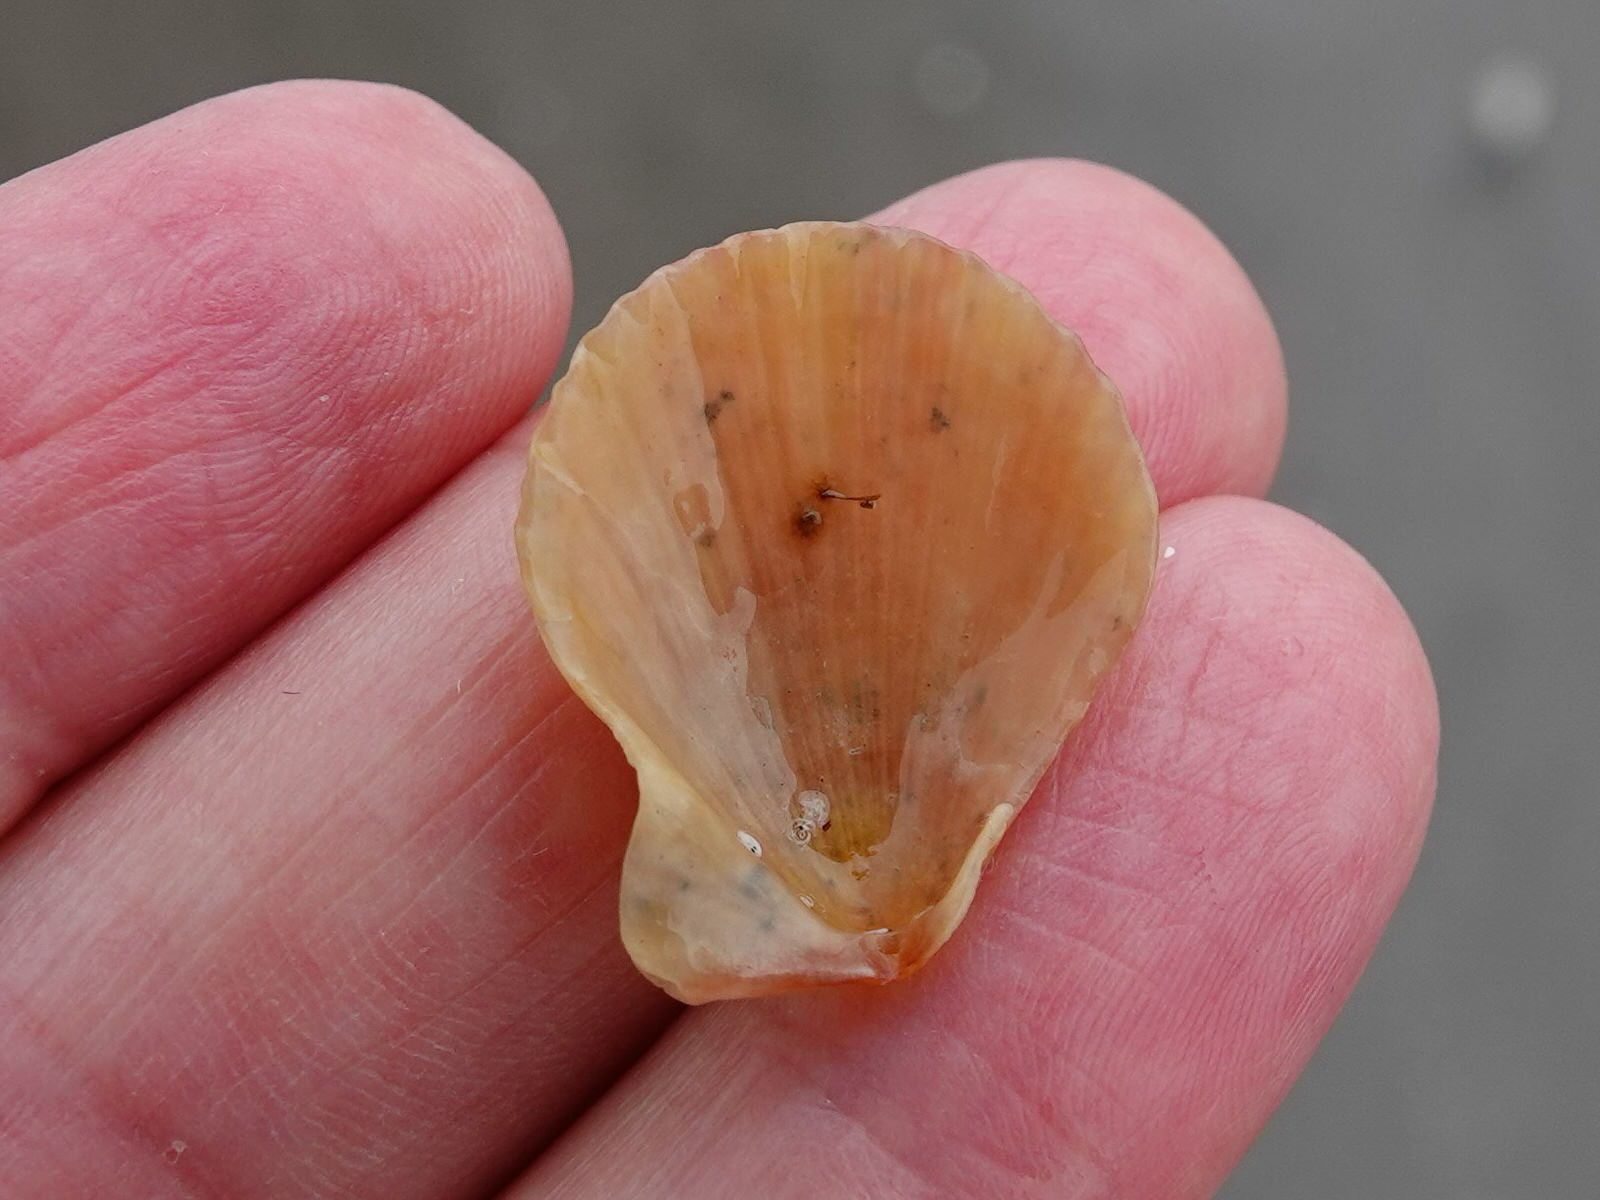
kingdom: Animalia
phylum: Mollusca
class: Bivalvia
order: Pectinida
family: Pectinidae
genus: Talochlamys
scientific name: Talochlamys zelandiae
